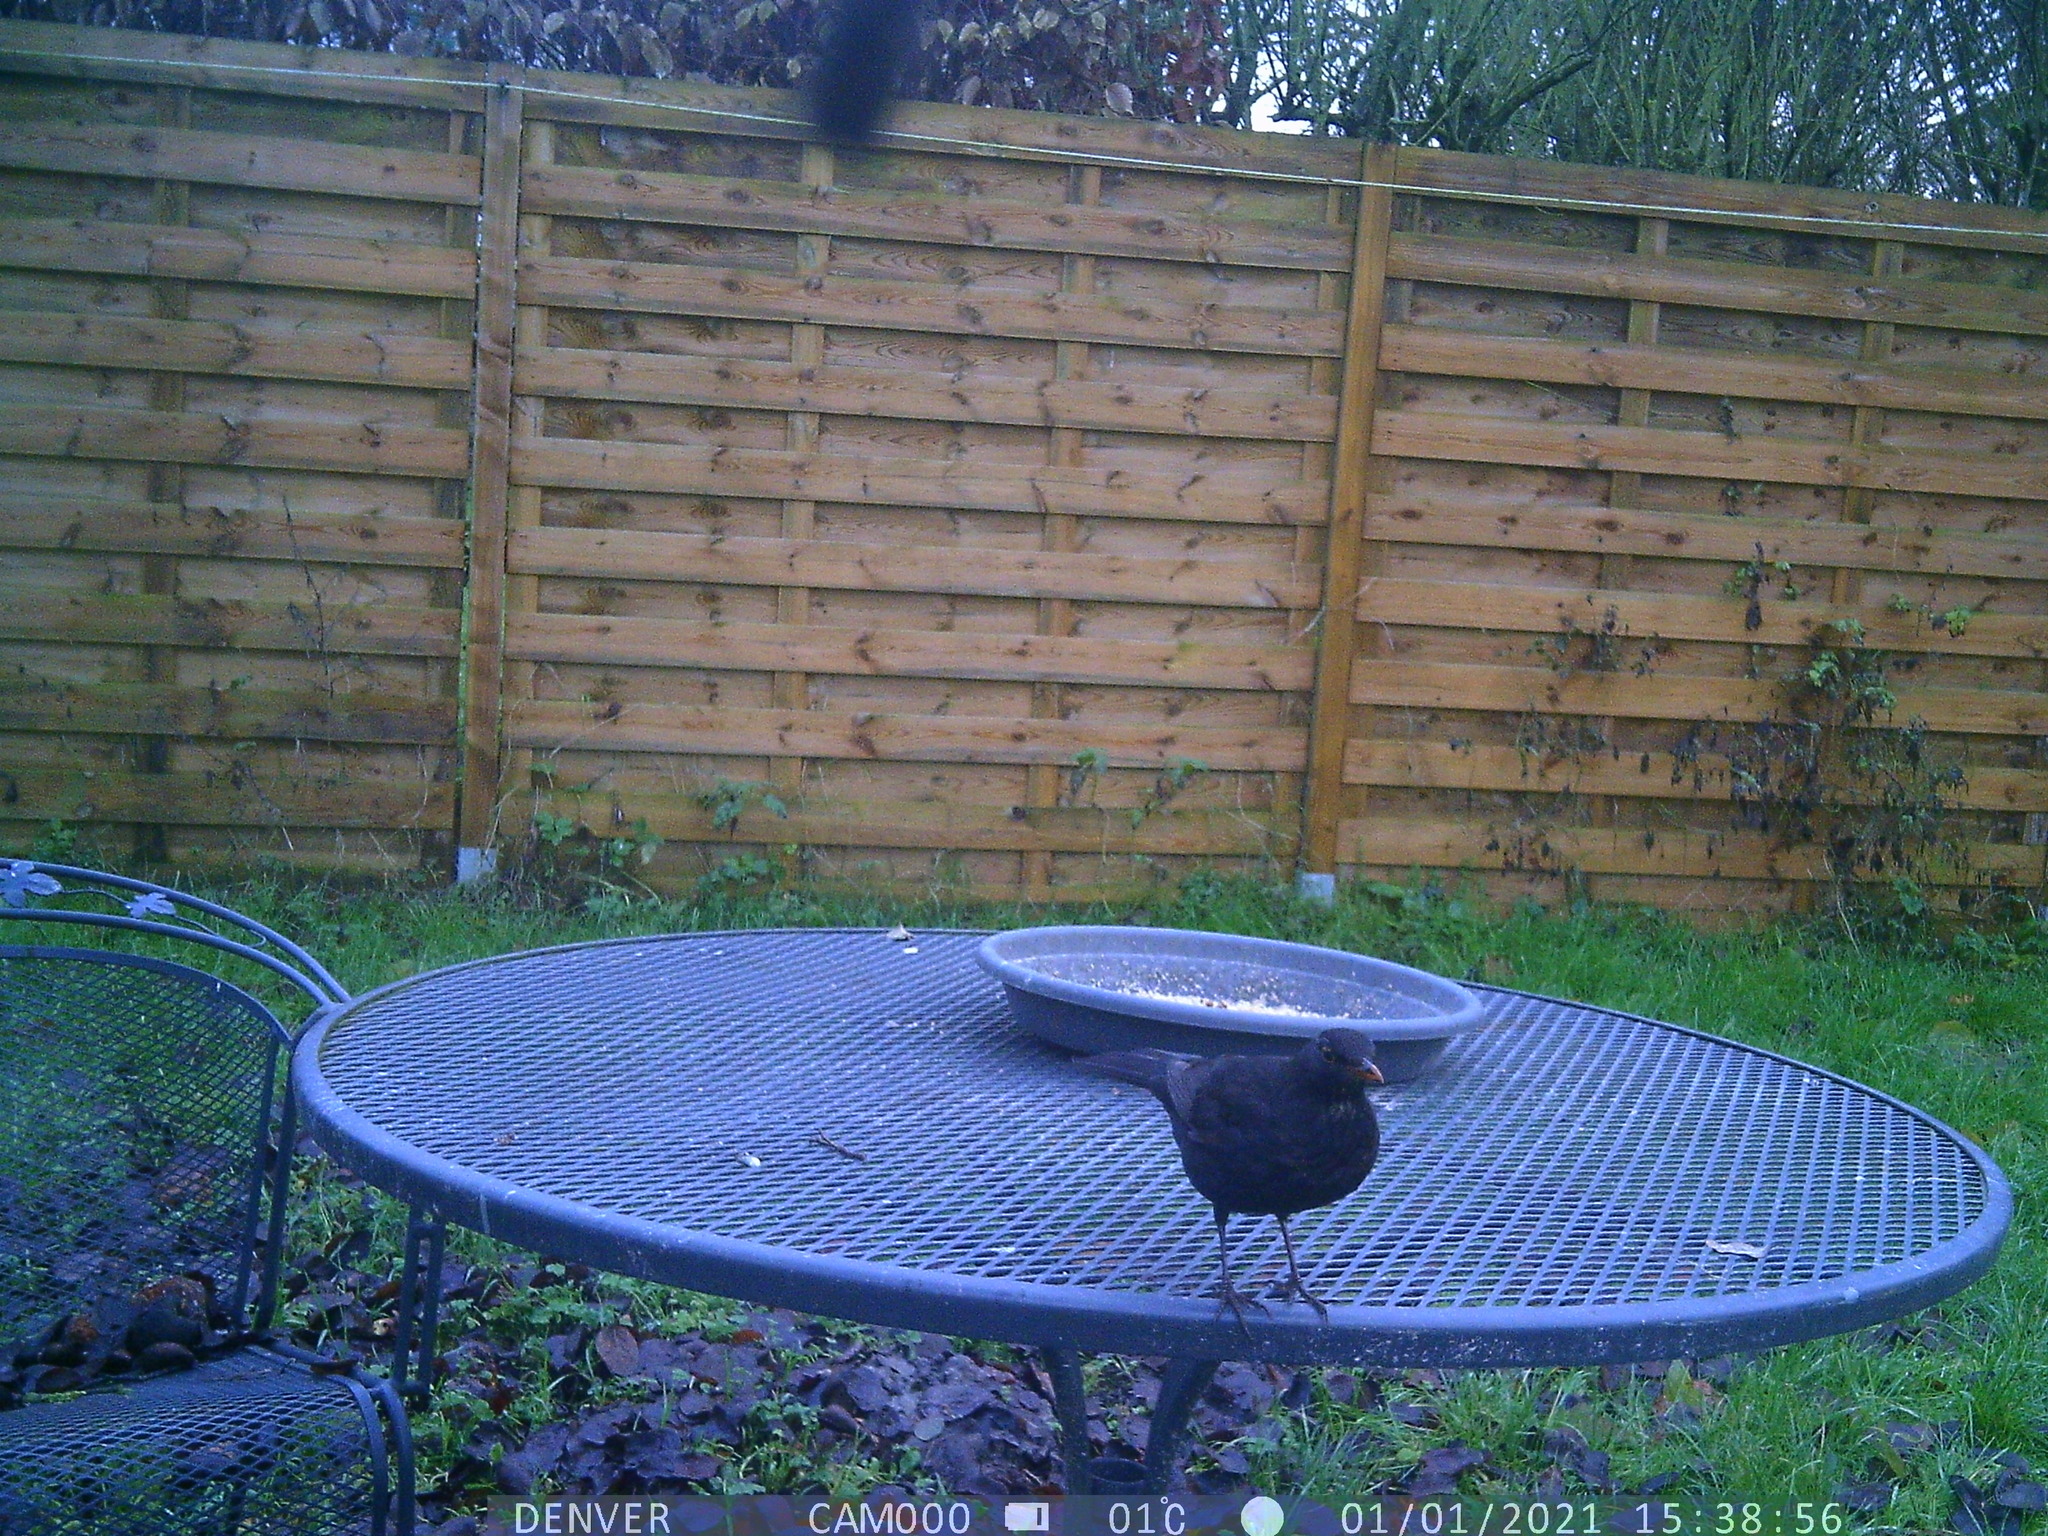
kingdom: Animalia
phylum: Chordata
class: Aves
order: Passeriformes
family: Turdidae
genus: Turdus
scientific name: Turdus merula
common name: Common blackbird
